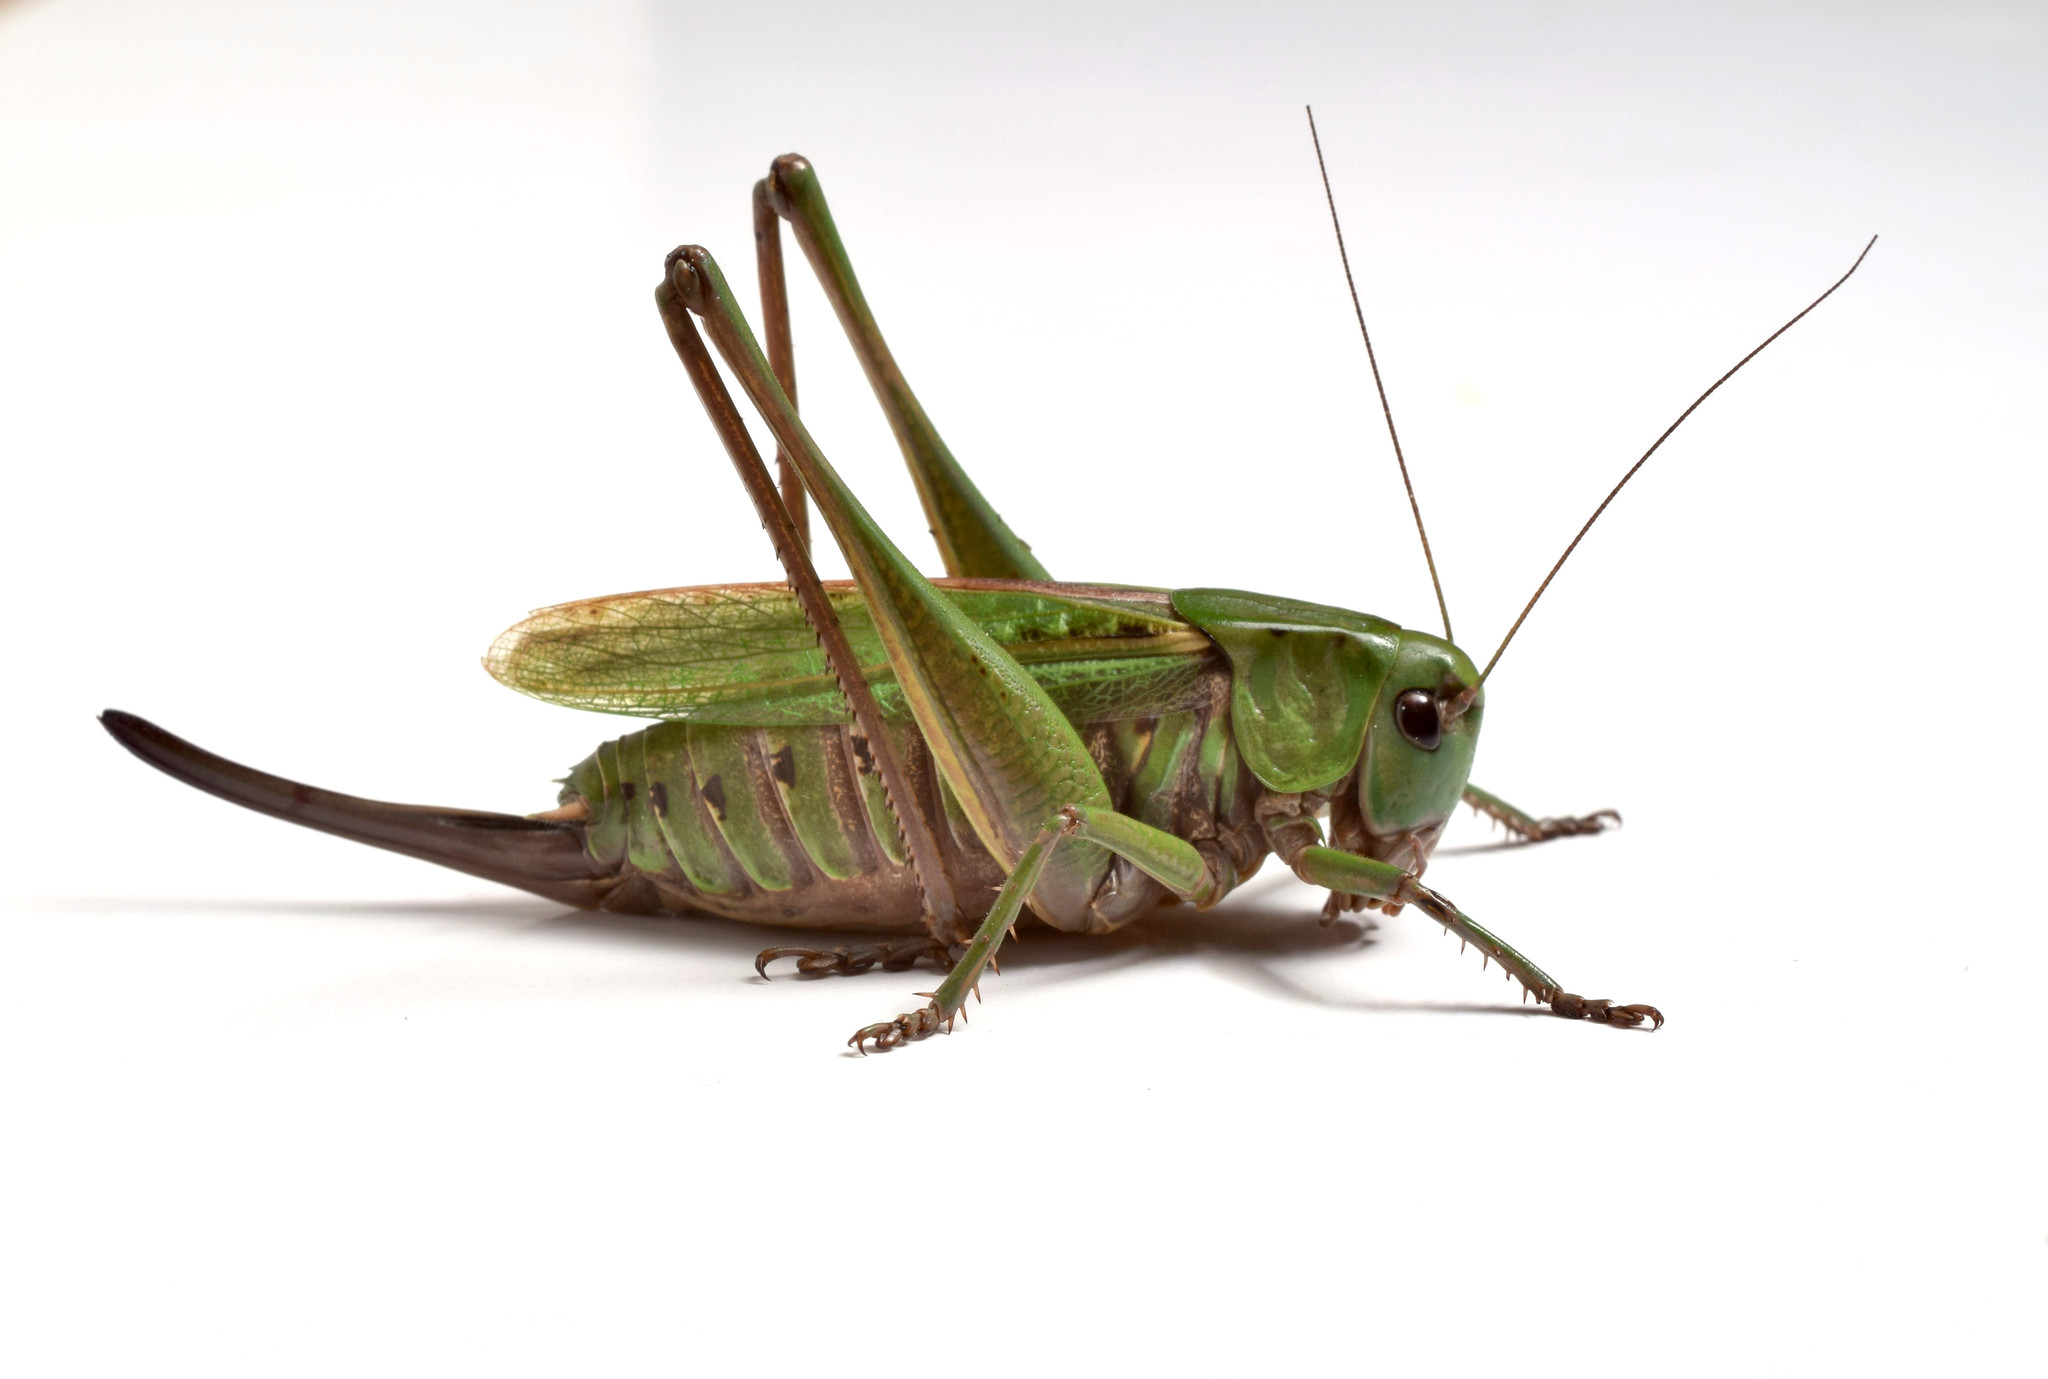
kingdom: Animalia
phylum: Arthropoda
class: Insecta
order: Orthoptera
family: Tettigoniidae
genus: Decticus
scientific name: Decticus verrucivorus
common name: Wart-biter
